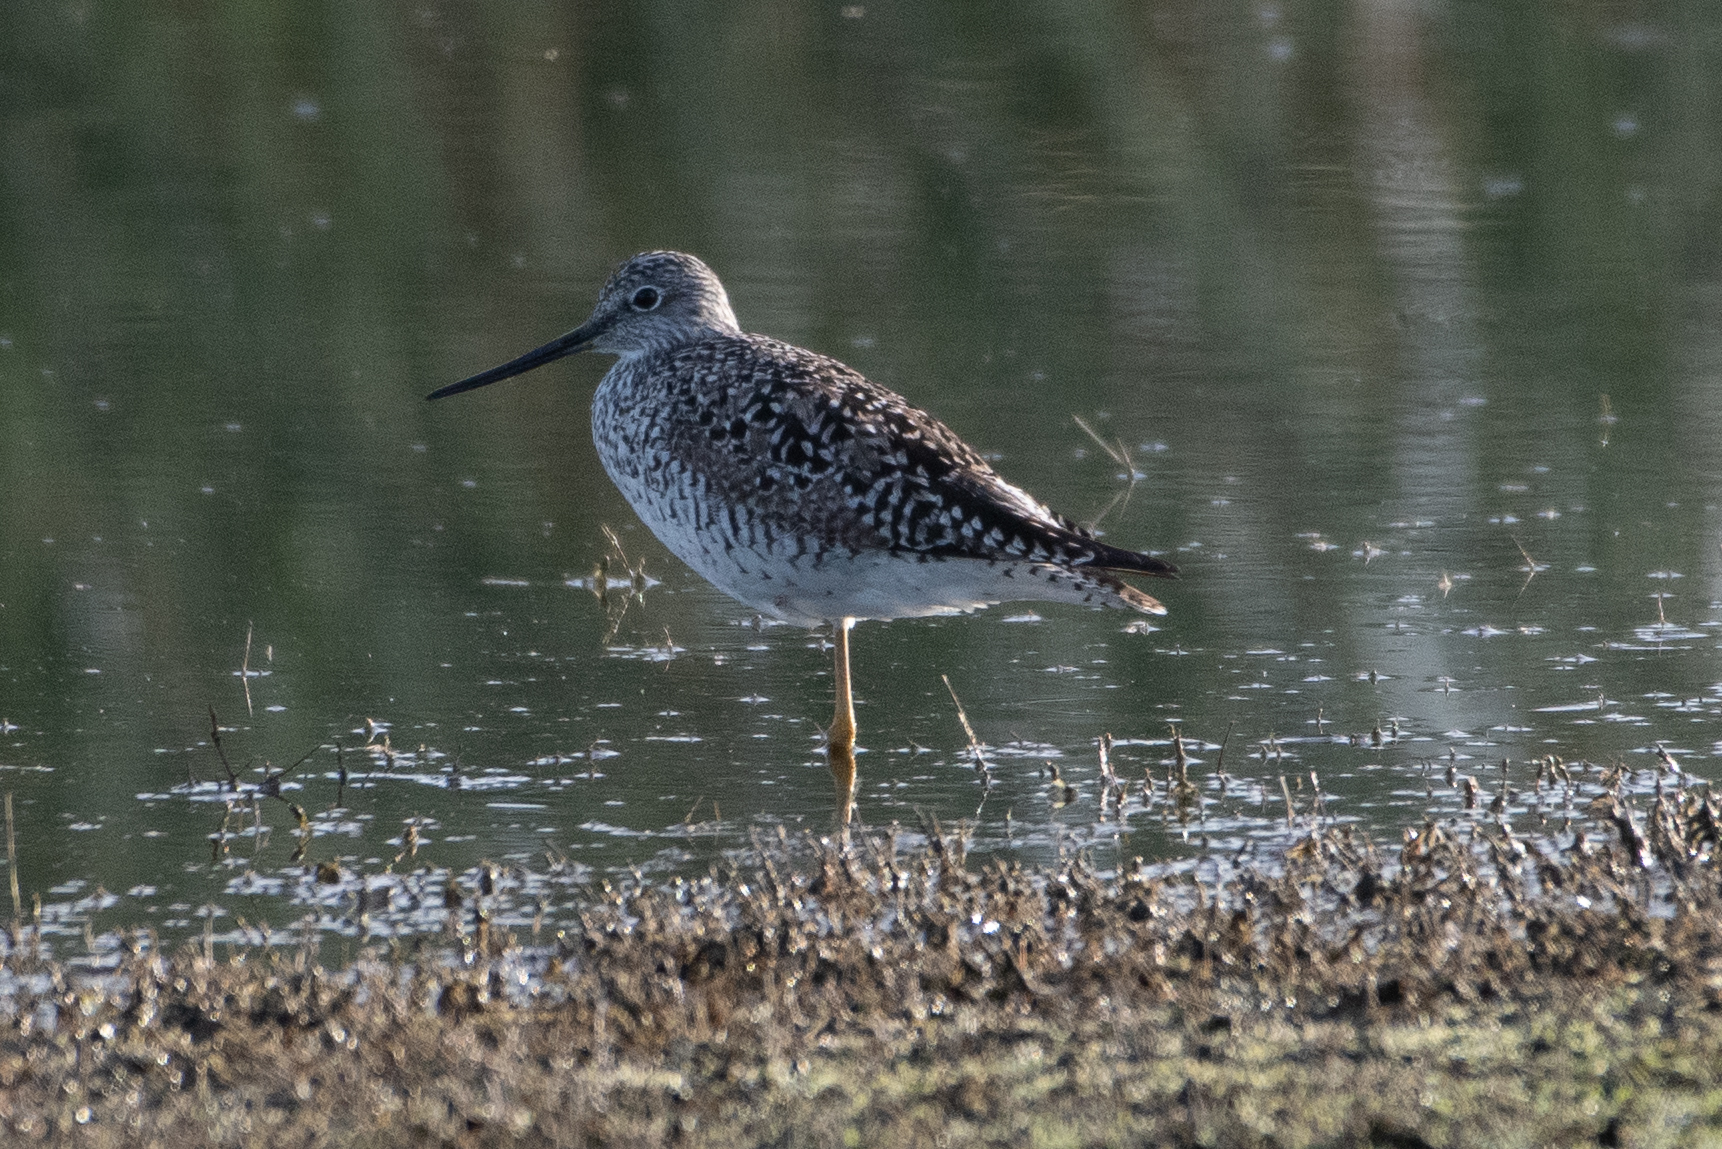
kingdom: Animalia
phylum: Chordata
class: Aves
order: Charadriiformes
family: Scolopacidae
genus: Tringa
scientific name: Tringa melanoleuca
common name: Greater yellowlegs
